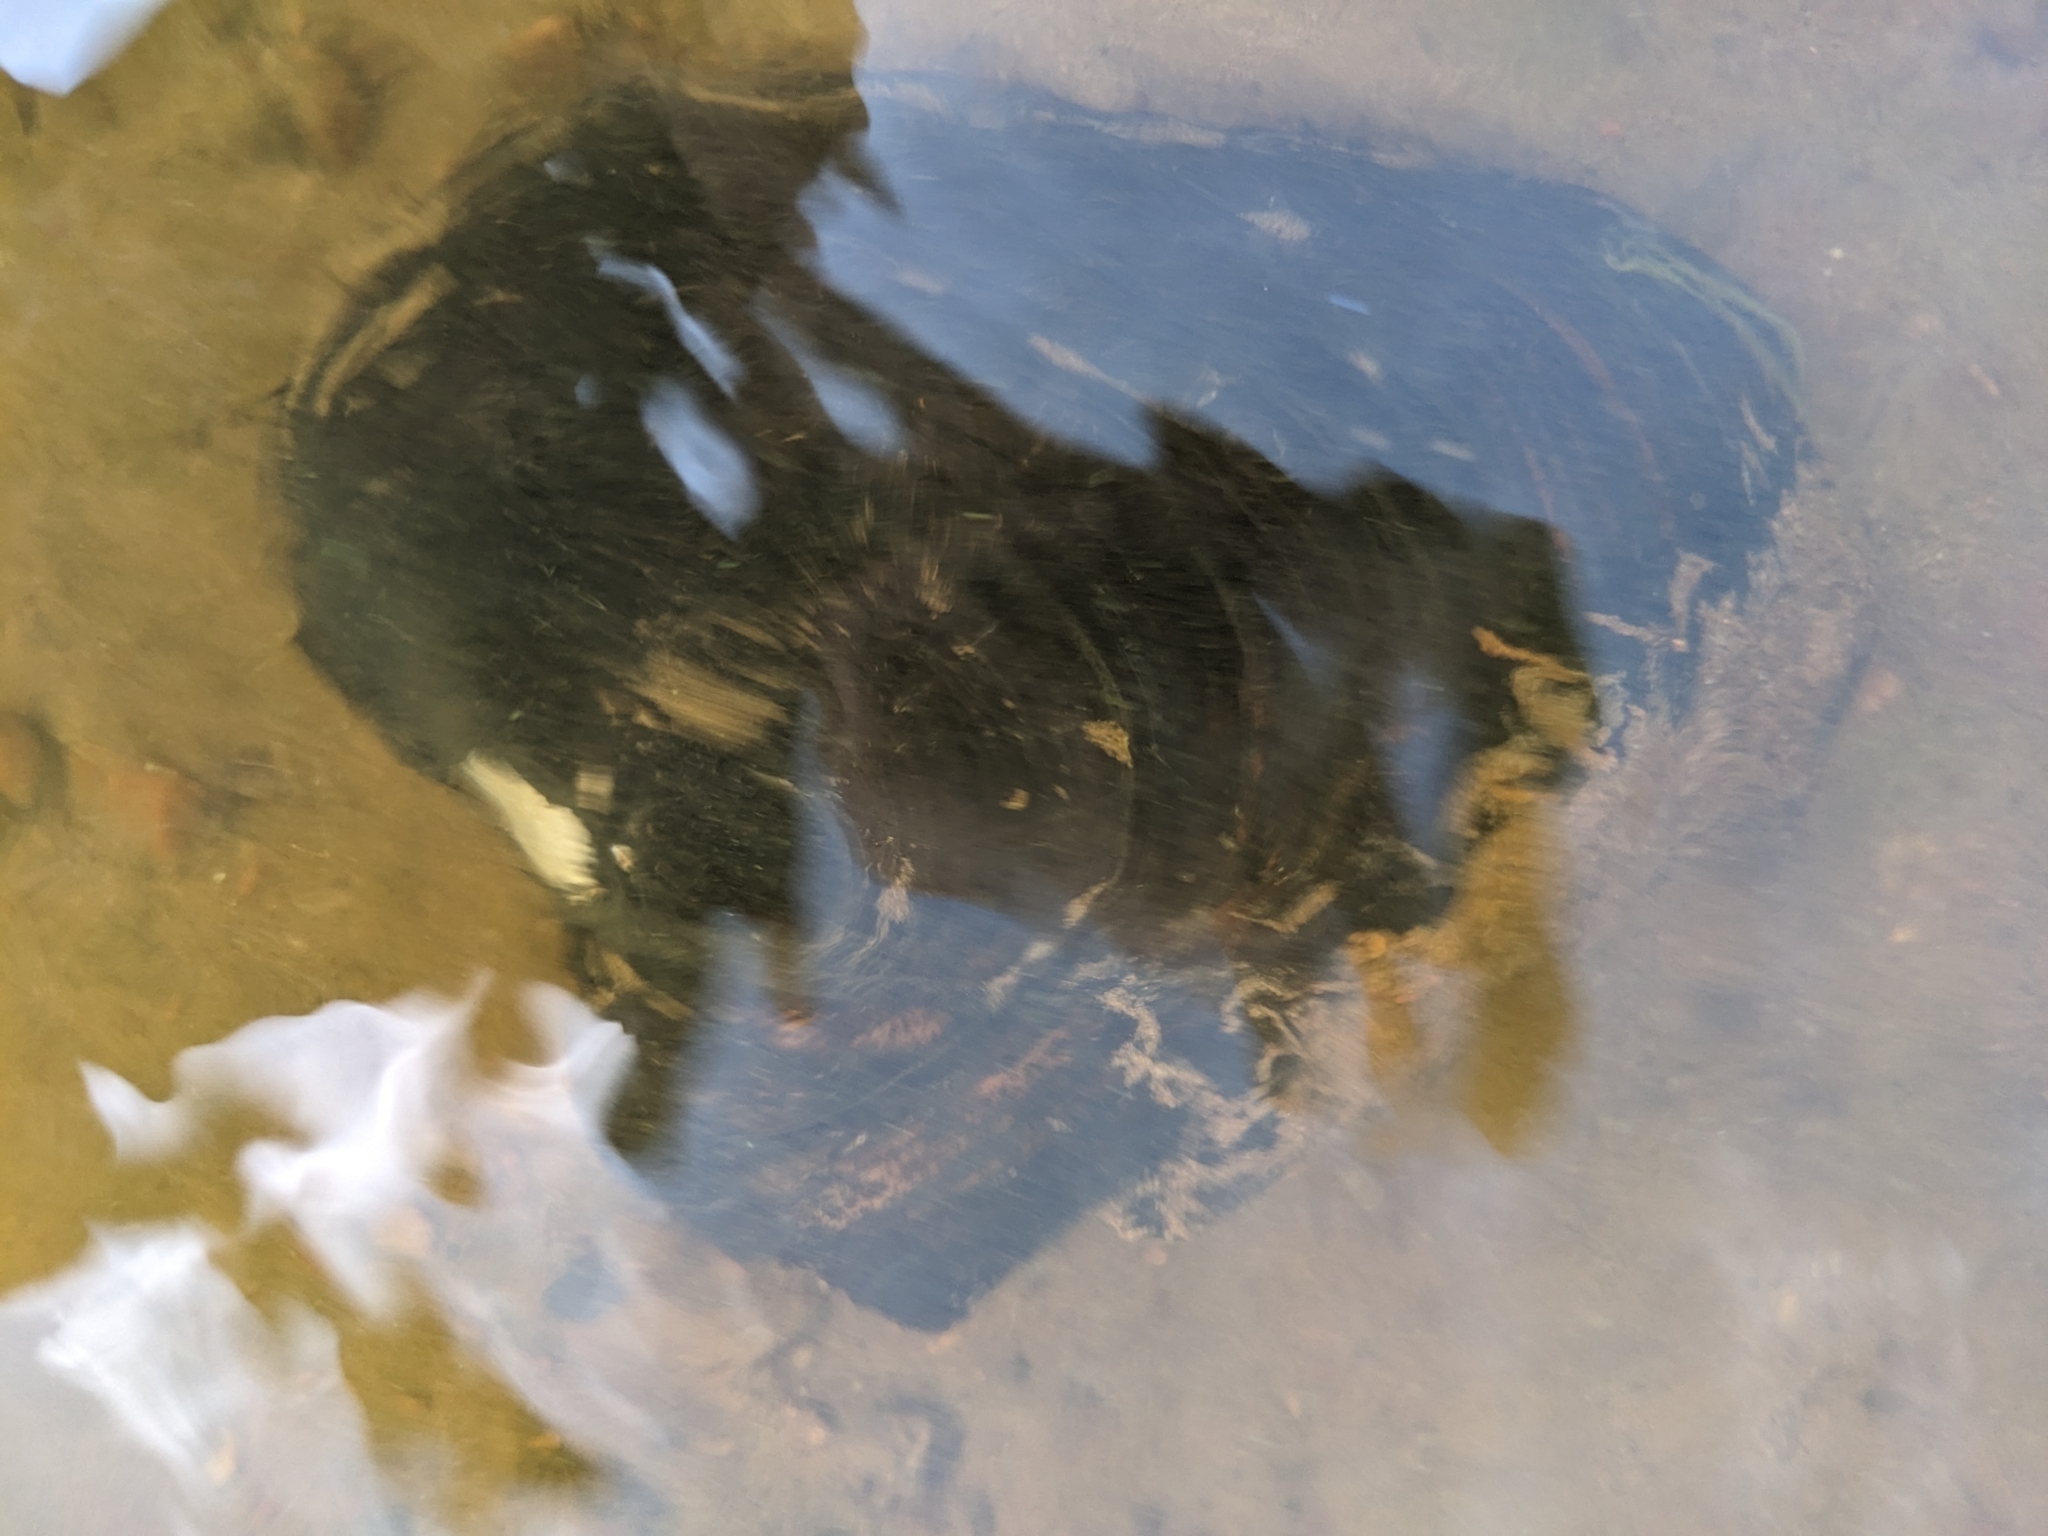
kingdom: Animalia
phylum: Mollusca
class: Bivalvia
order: Unionida
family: Unionidae
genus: Potamilus
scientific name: Potamilus alatus
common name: Pink heelsplitter
